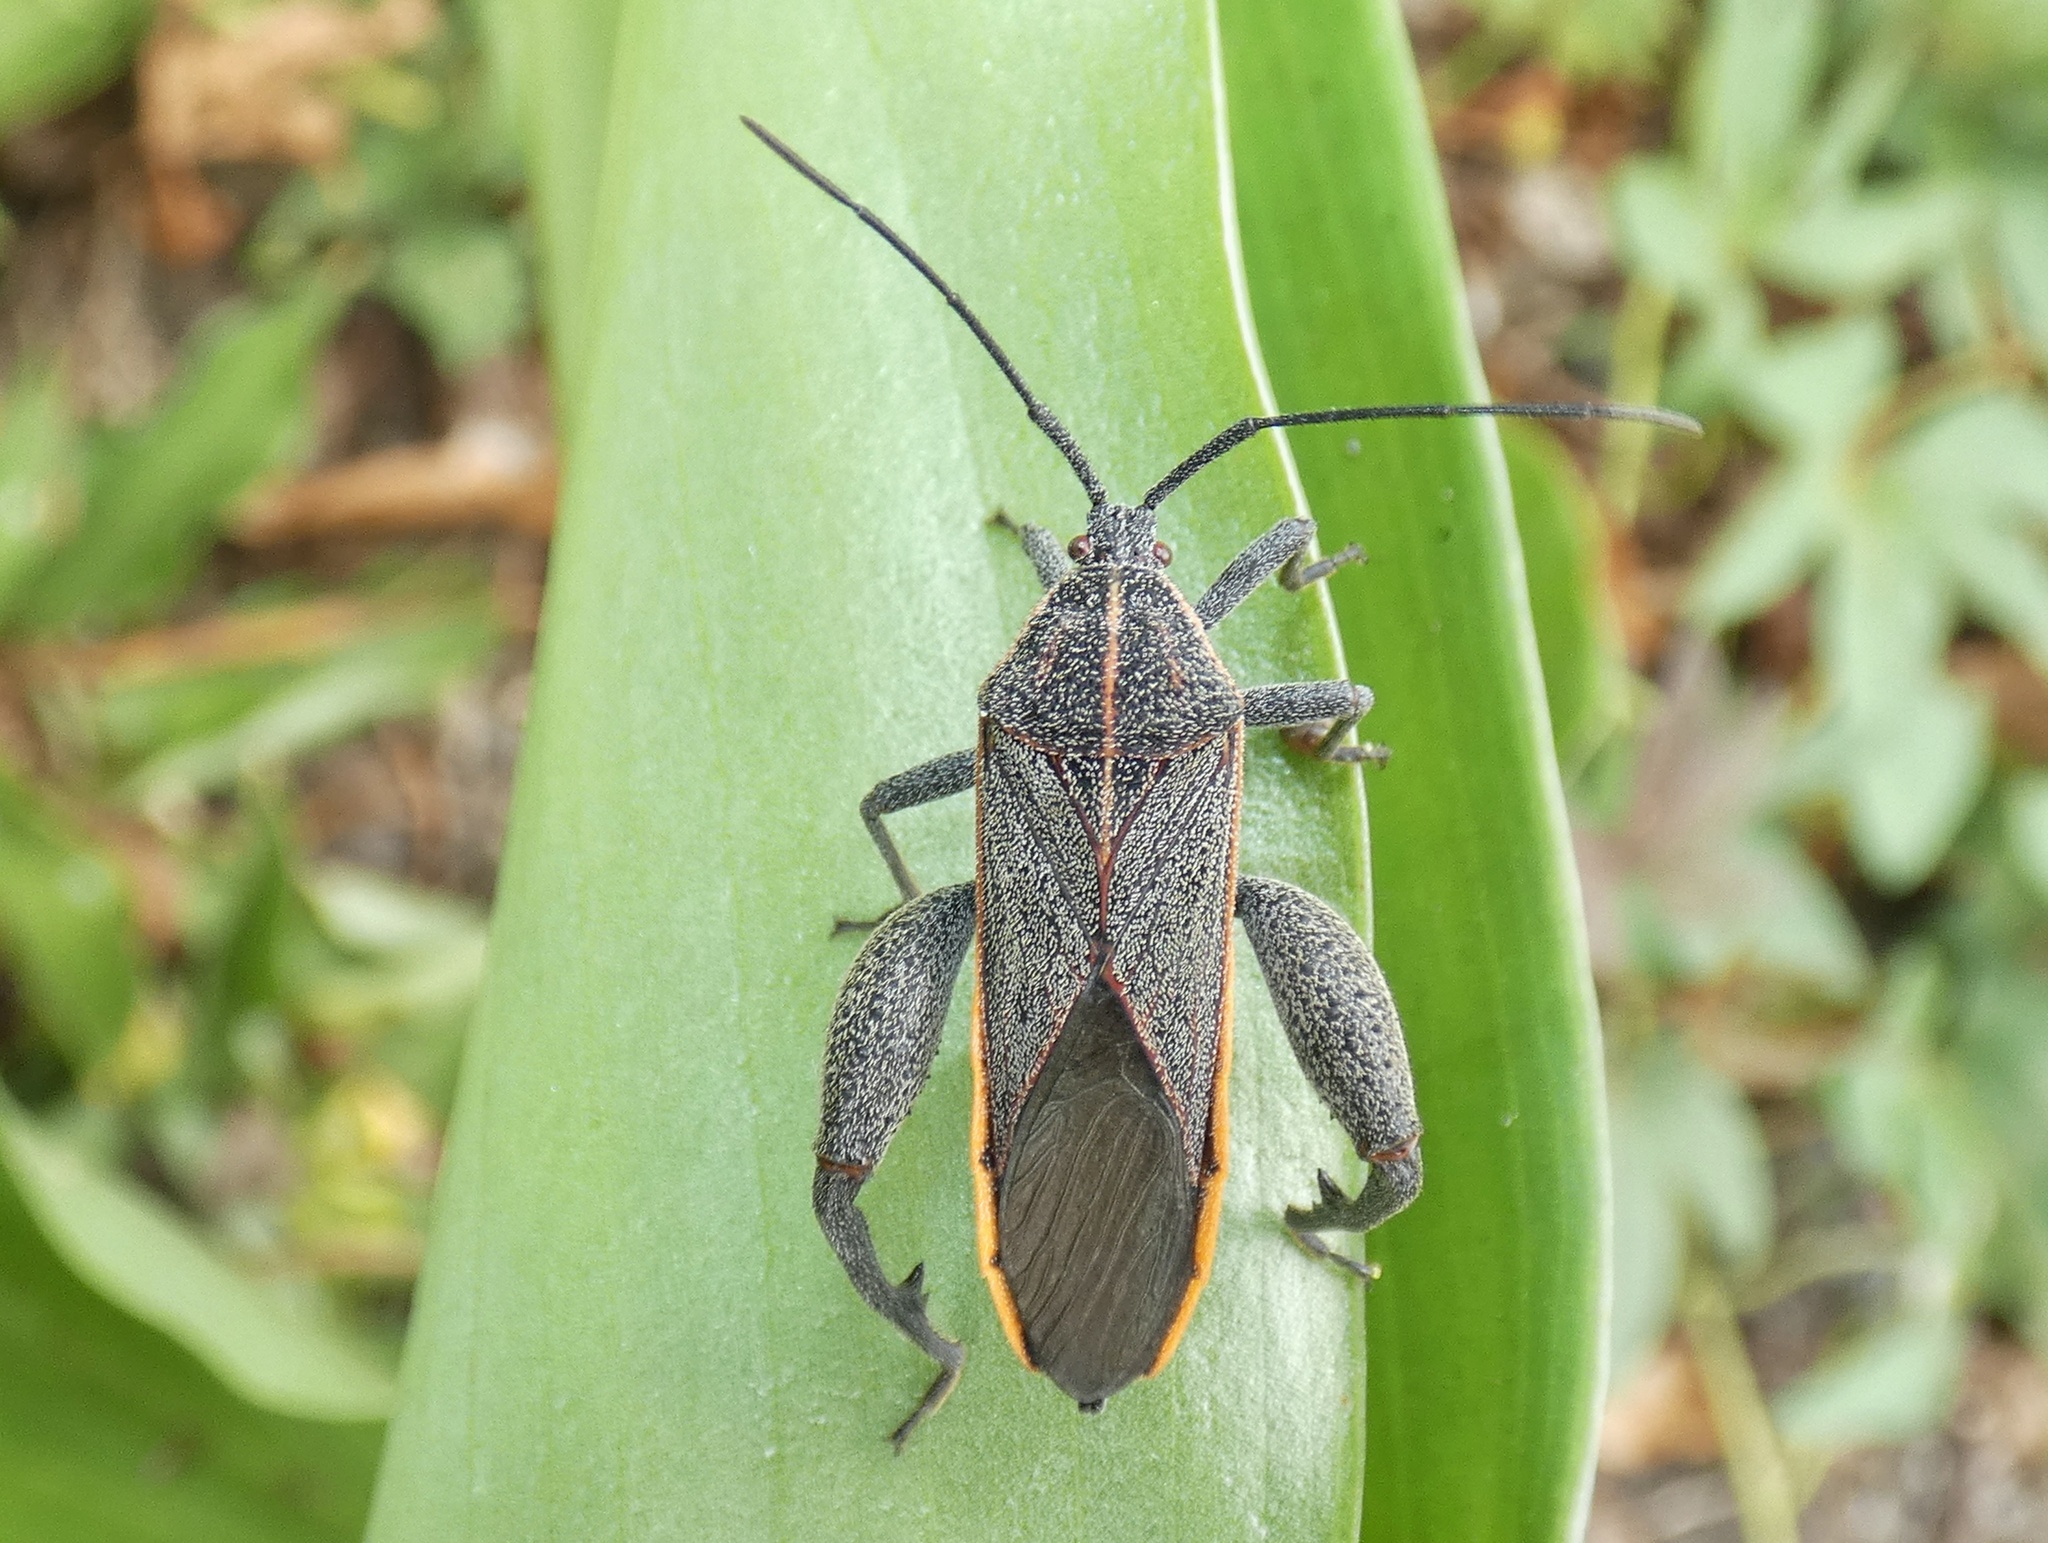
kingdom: Animalia
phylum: Arthropoda
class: Insecta
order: Hemiptera
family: Coreidae
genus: Physomerus
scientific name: Physomerus grossipes
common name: Squash bug
